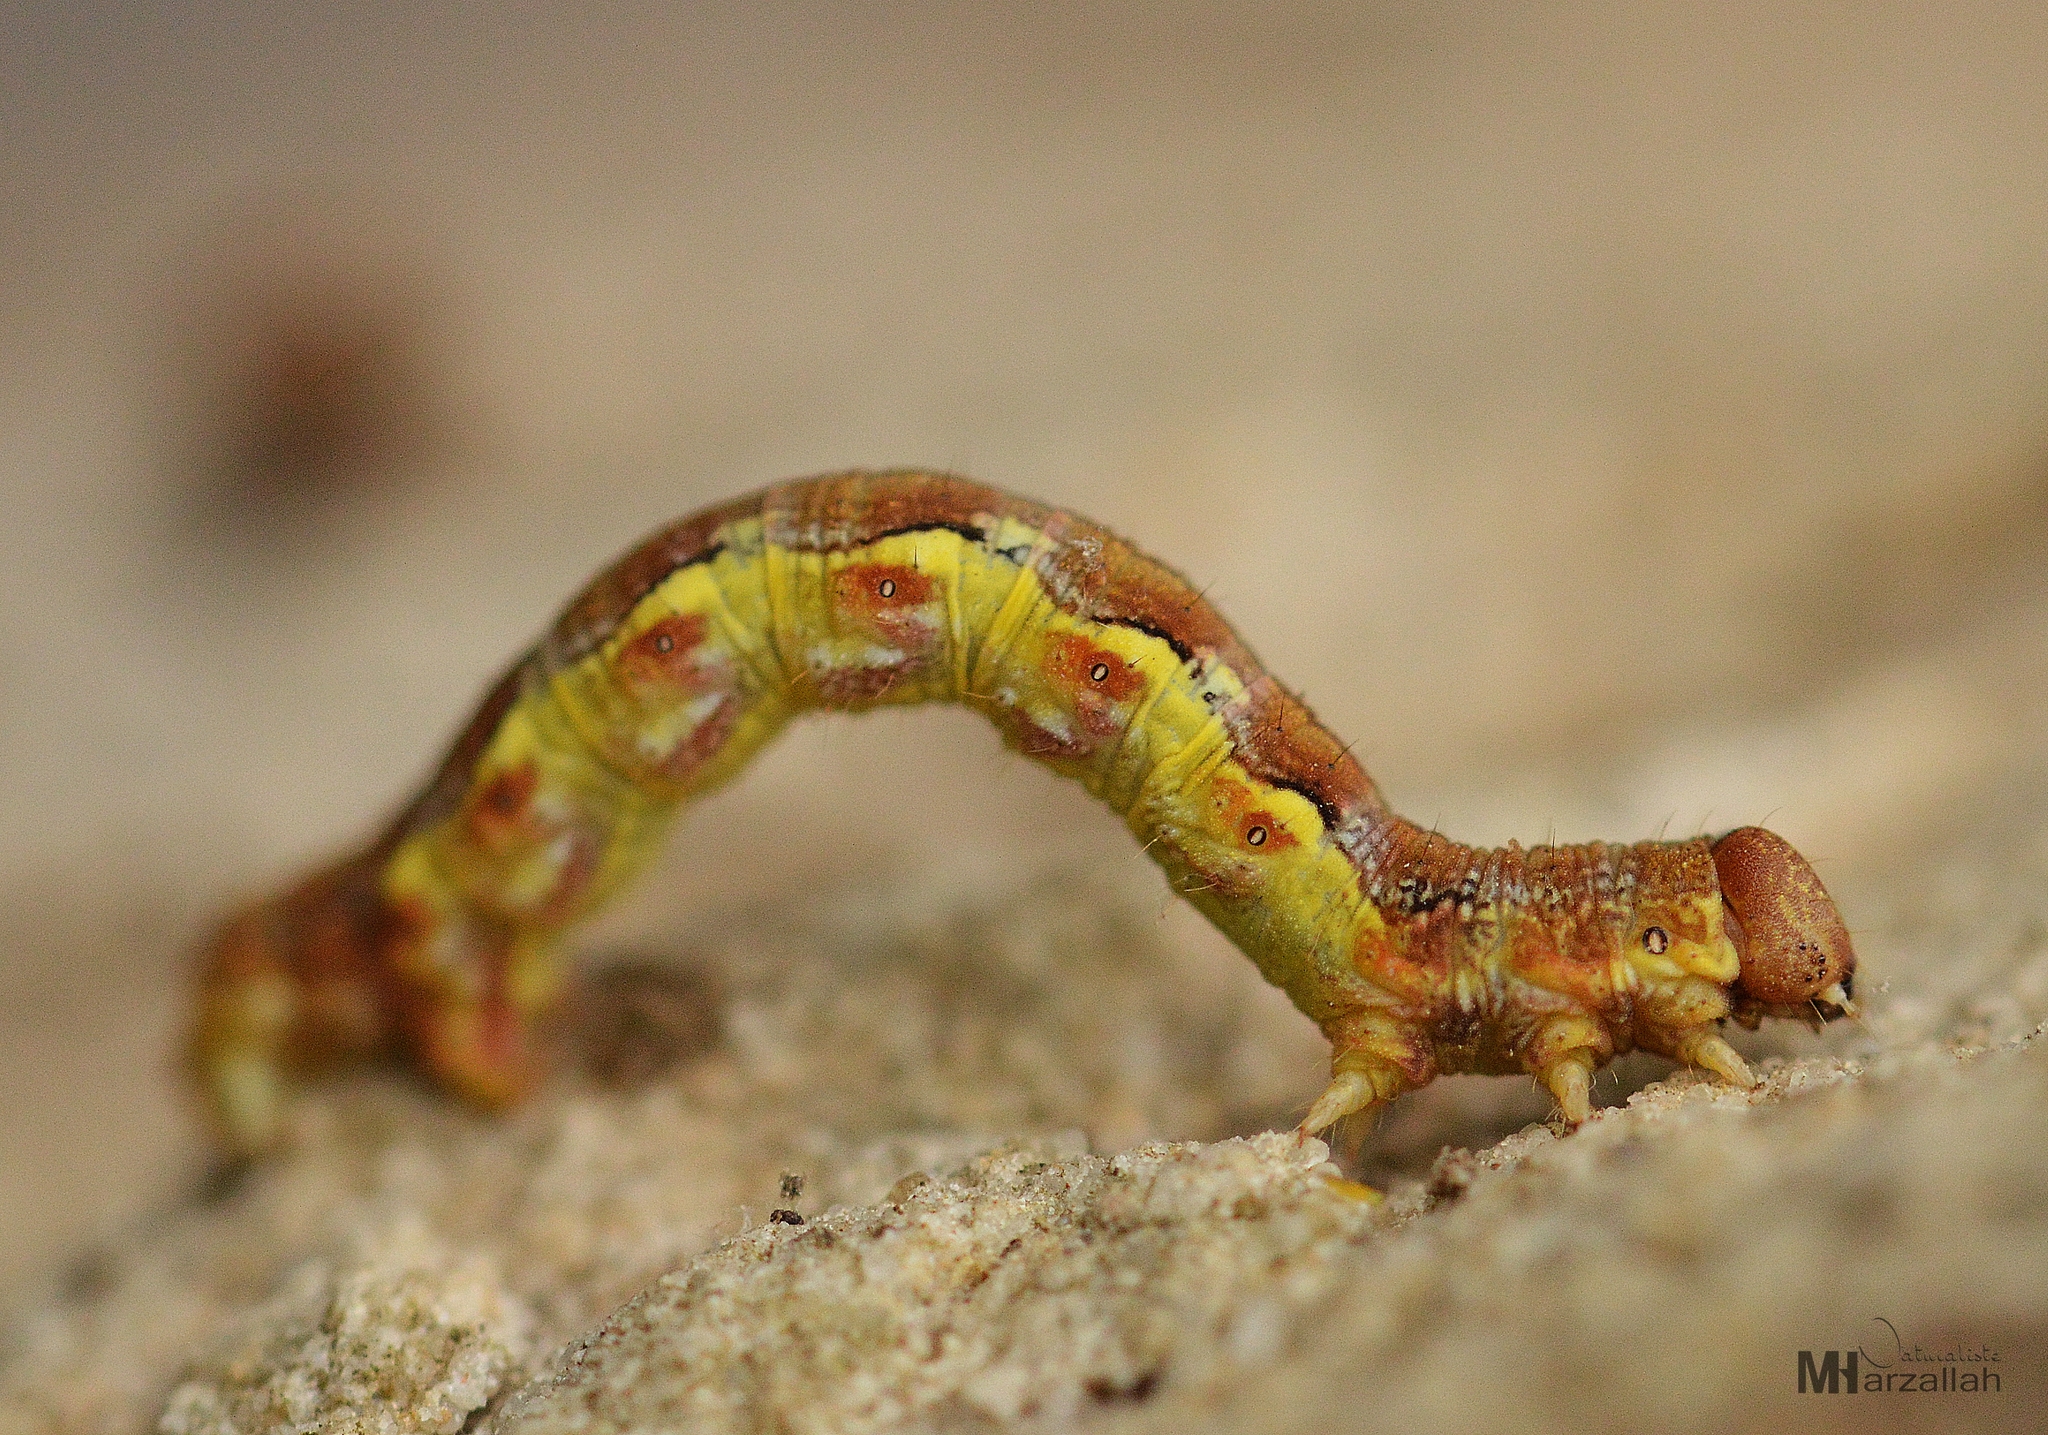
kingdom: Animalia
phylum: Arthropoda
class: Insecta
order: Lepidoptera
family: Geometridae
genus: Erannis
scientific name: Erannis defoliaria
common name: Mottled umber
